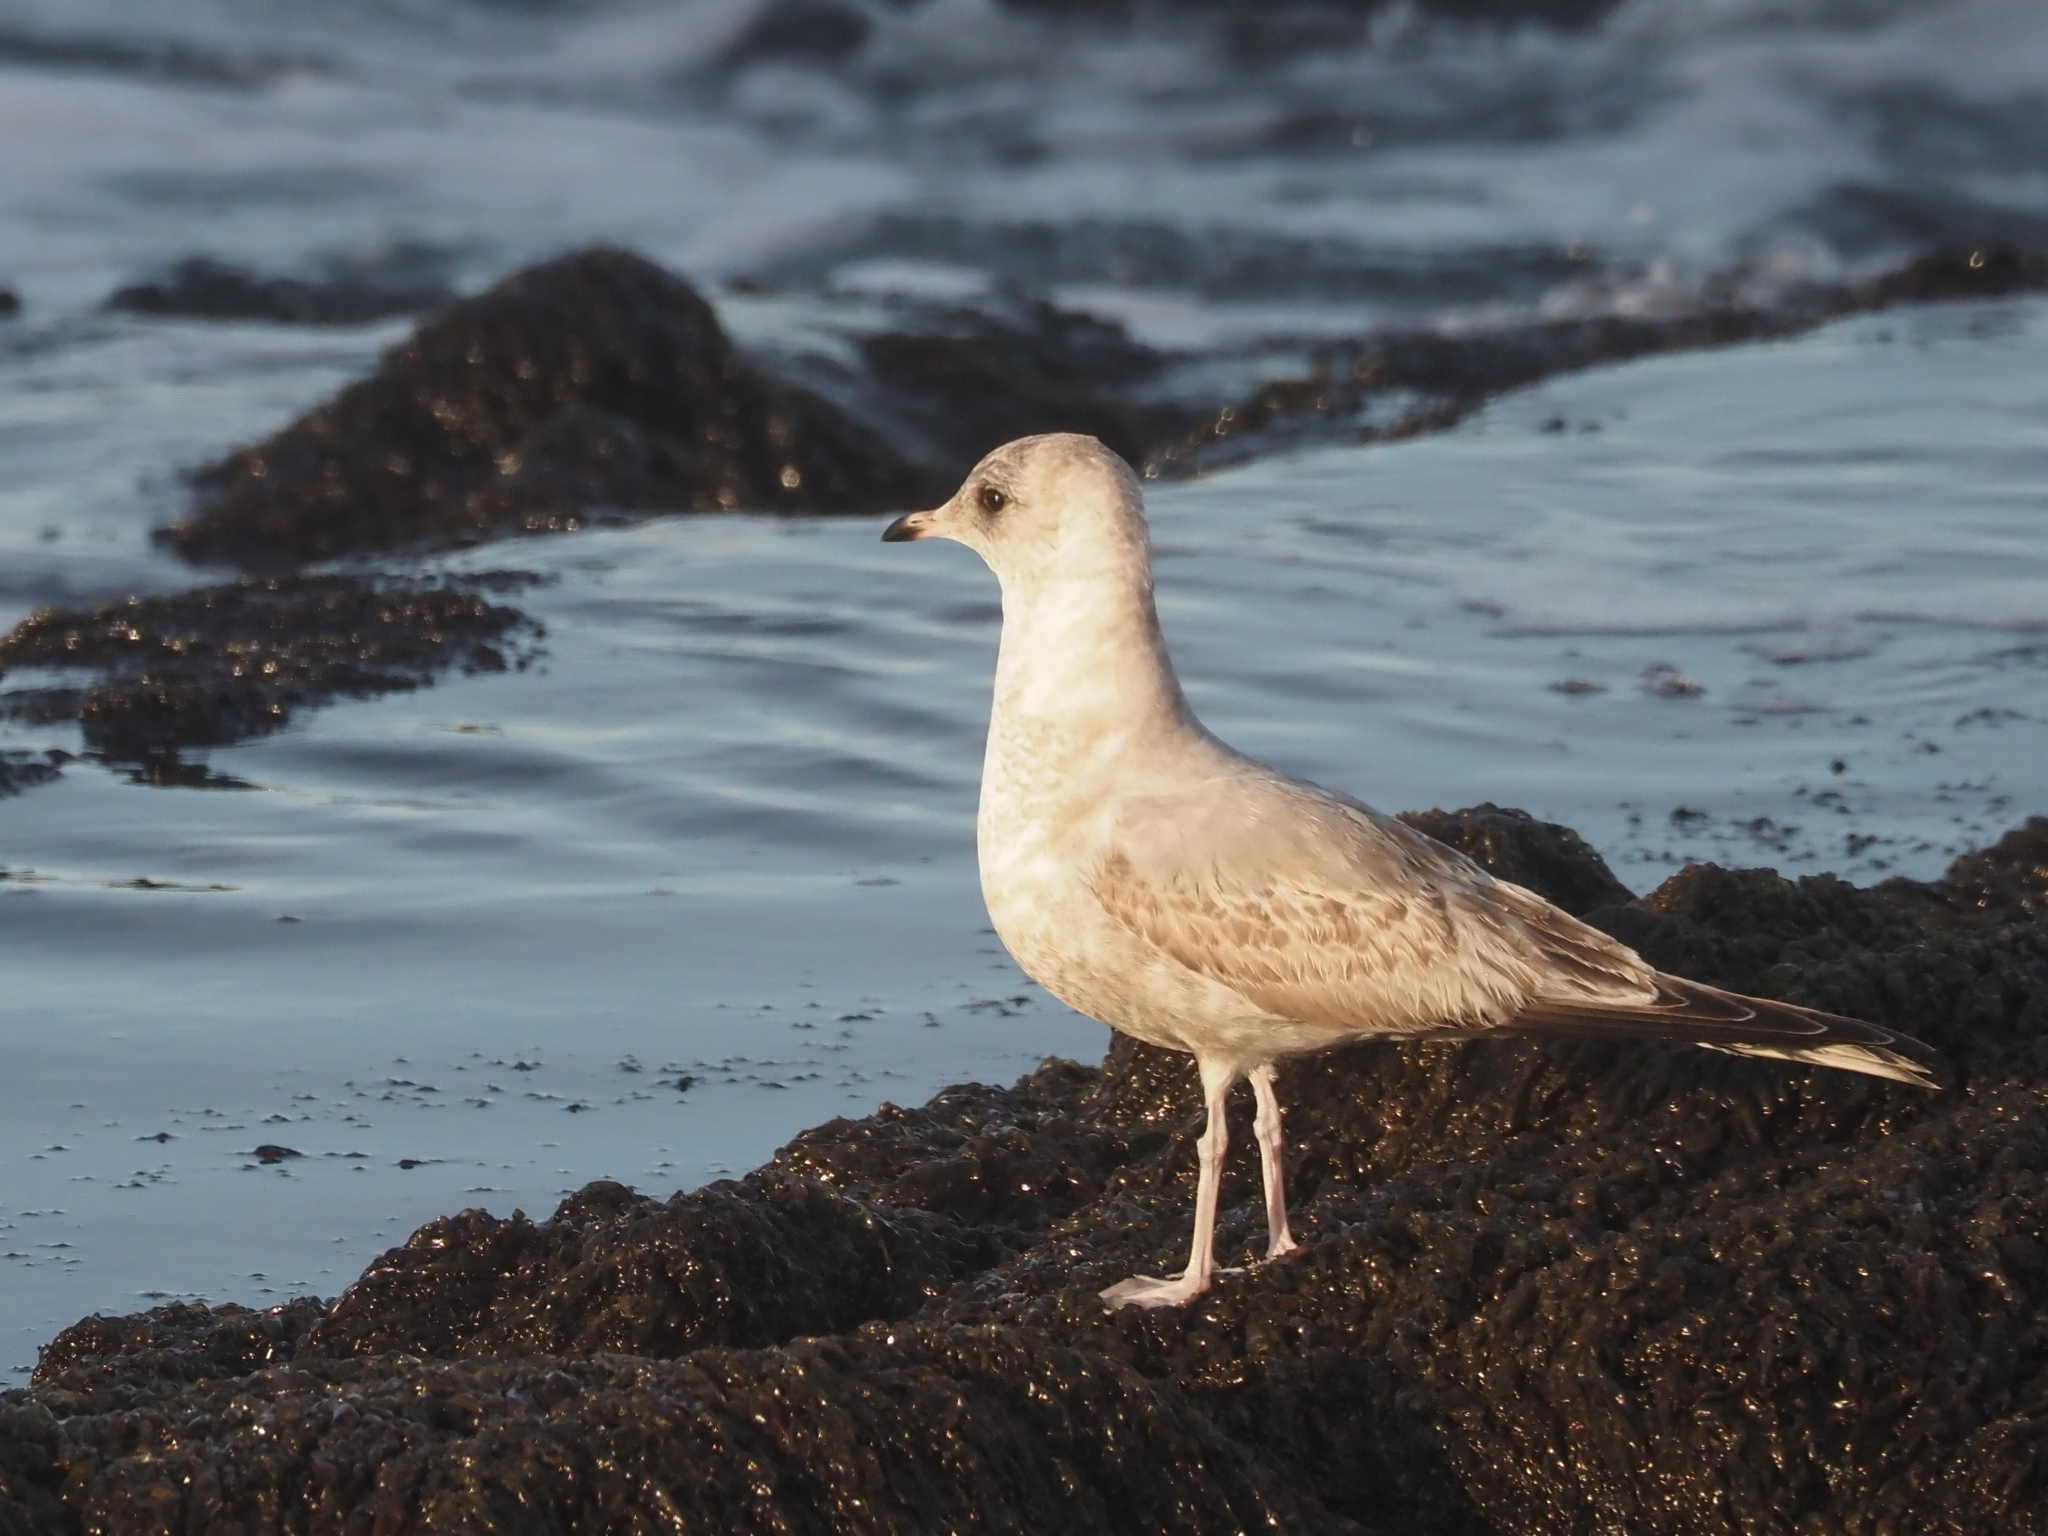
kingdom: Animalia
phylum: Chordata
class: Aves
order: Charadriiformes
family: Laridae
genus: Larus
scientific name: Larus brachyrhynchus
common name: Short-billed gull
